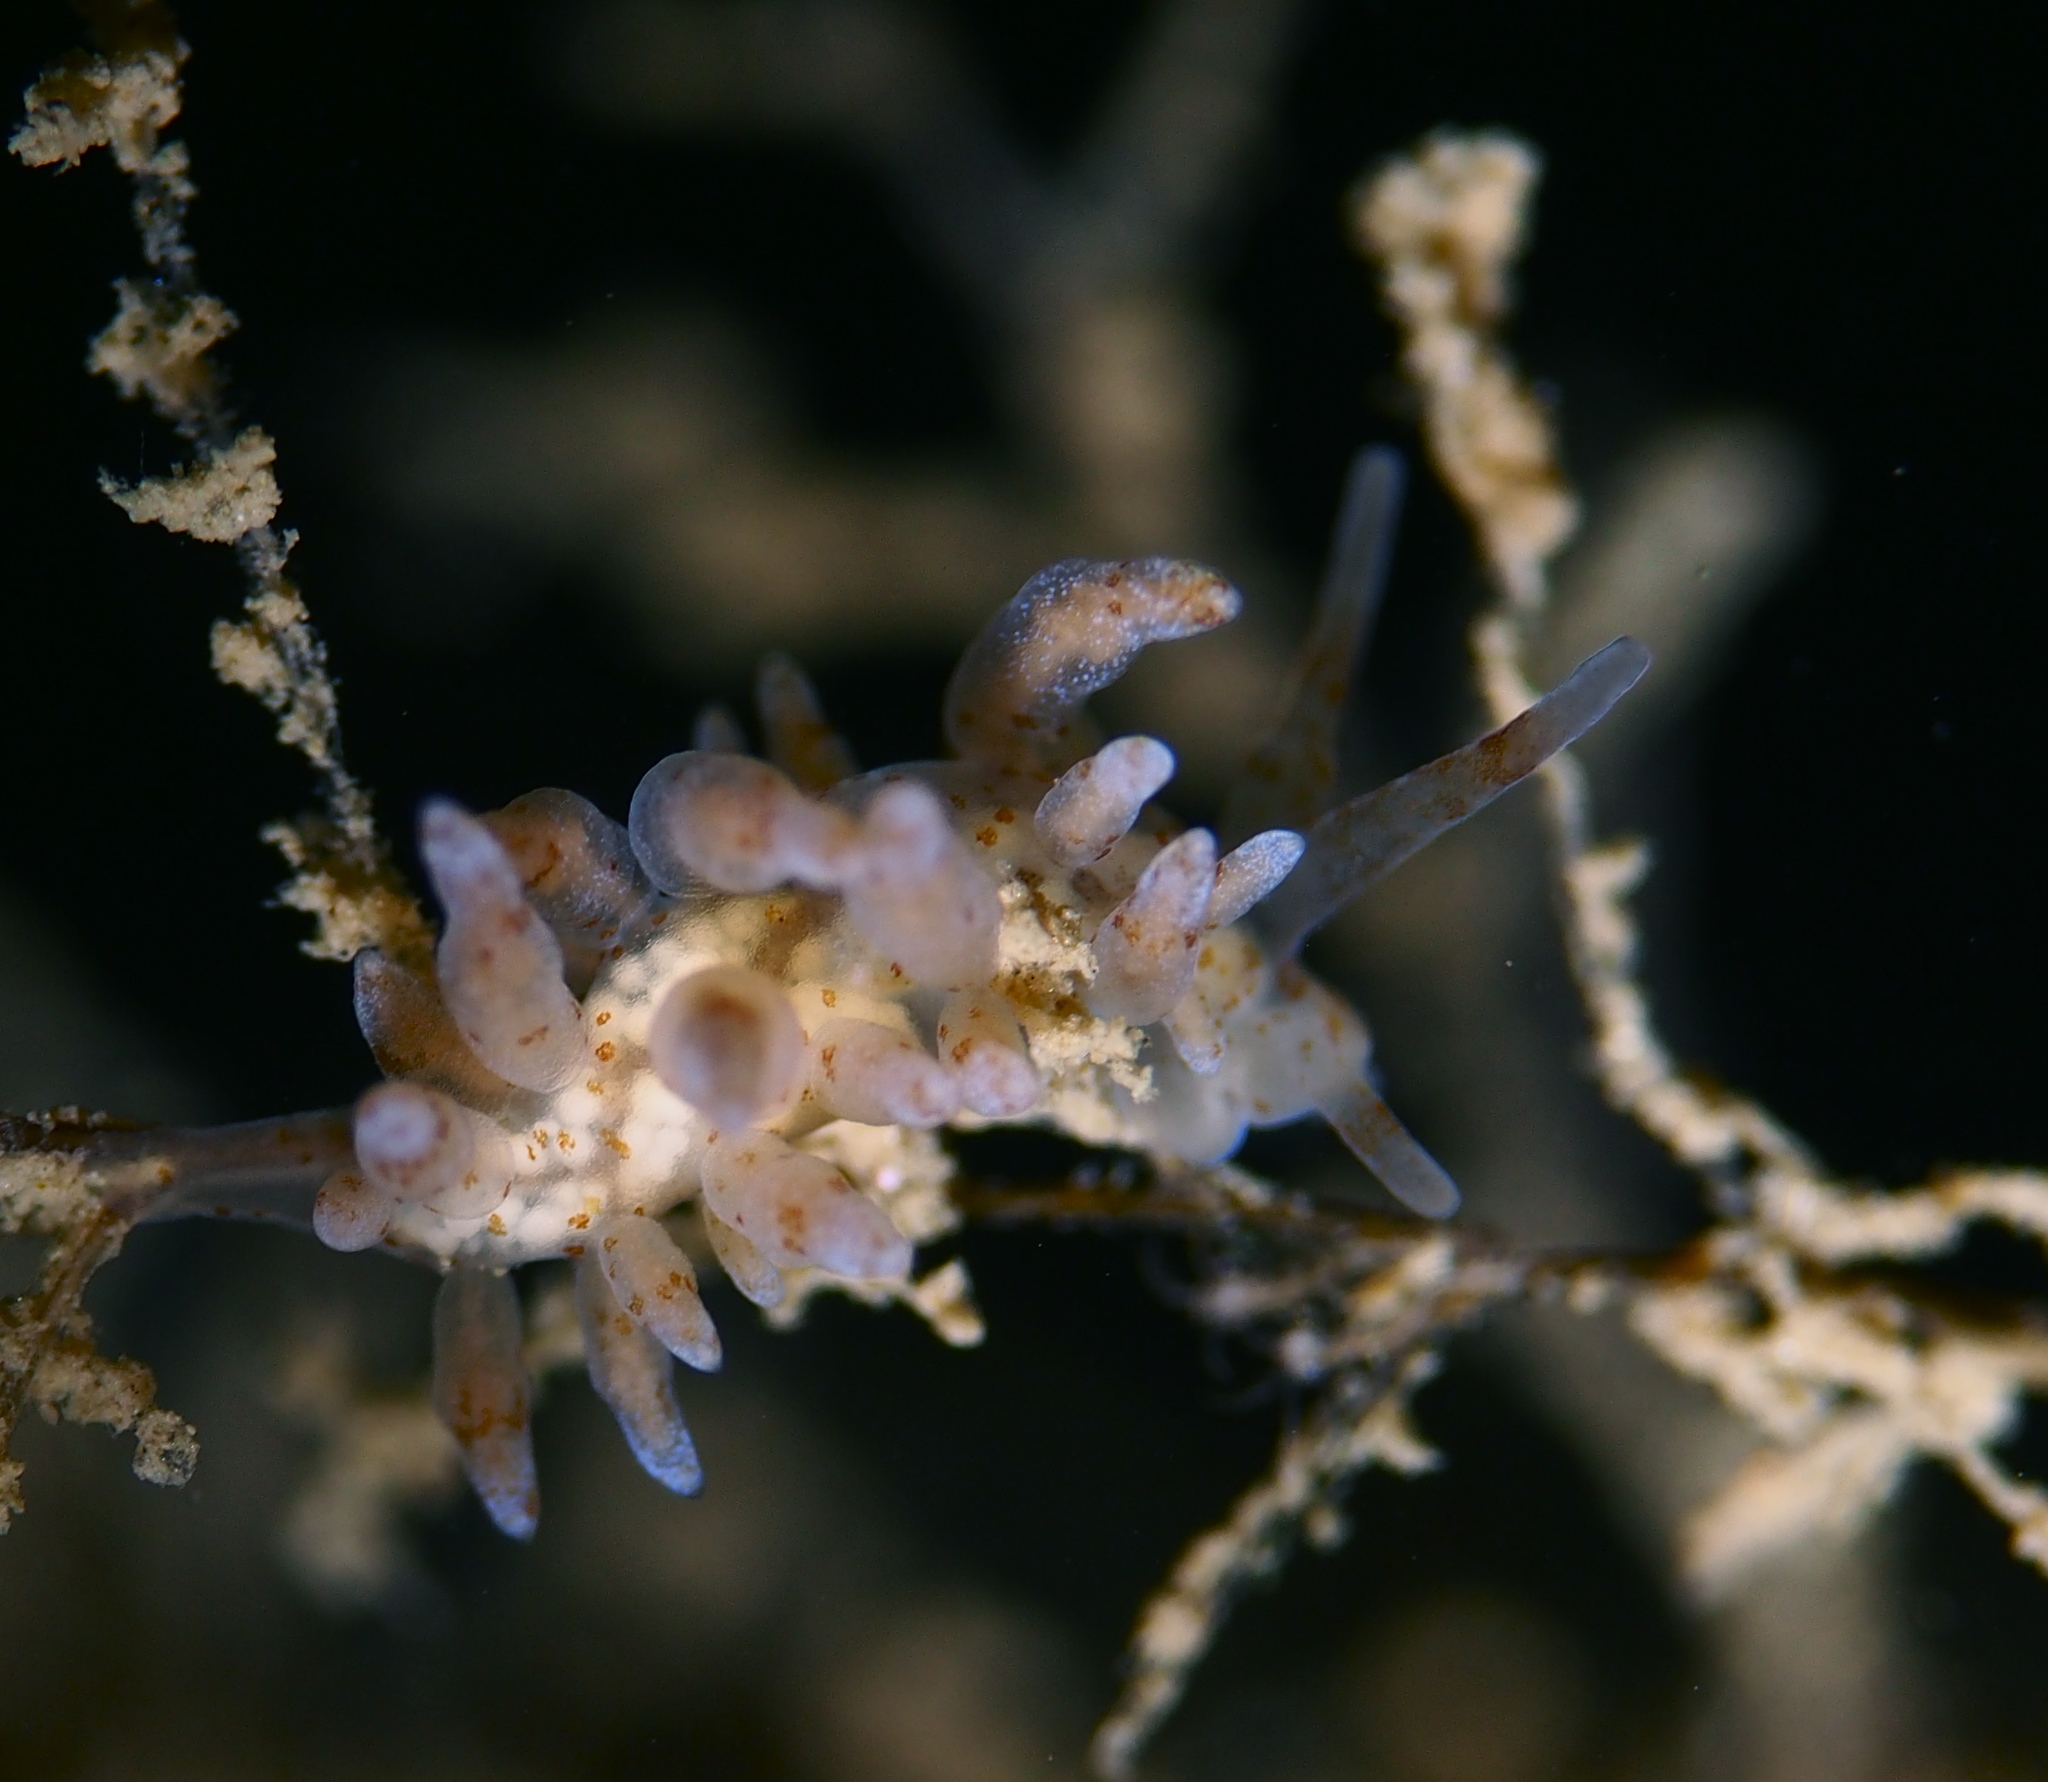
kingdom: Animalia
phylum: Mollusca
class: Gastropoda
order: Nudibranchia
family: Eubranchidae
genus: Eubranchus
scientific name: Eubranchus rupium
